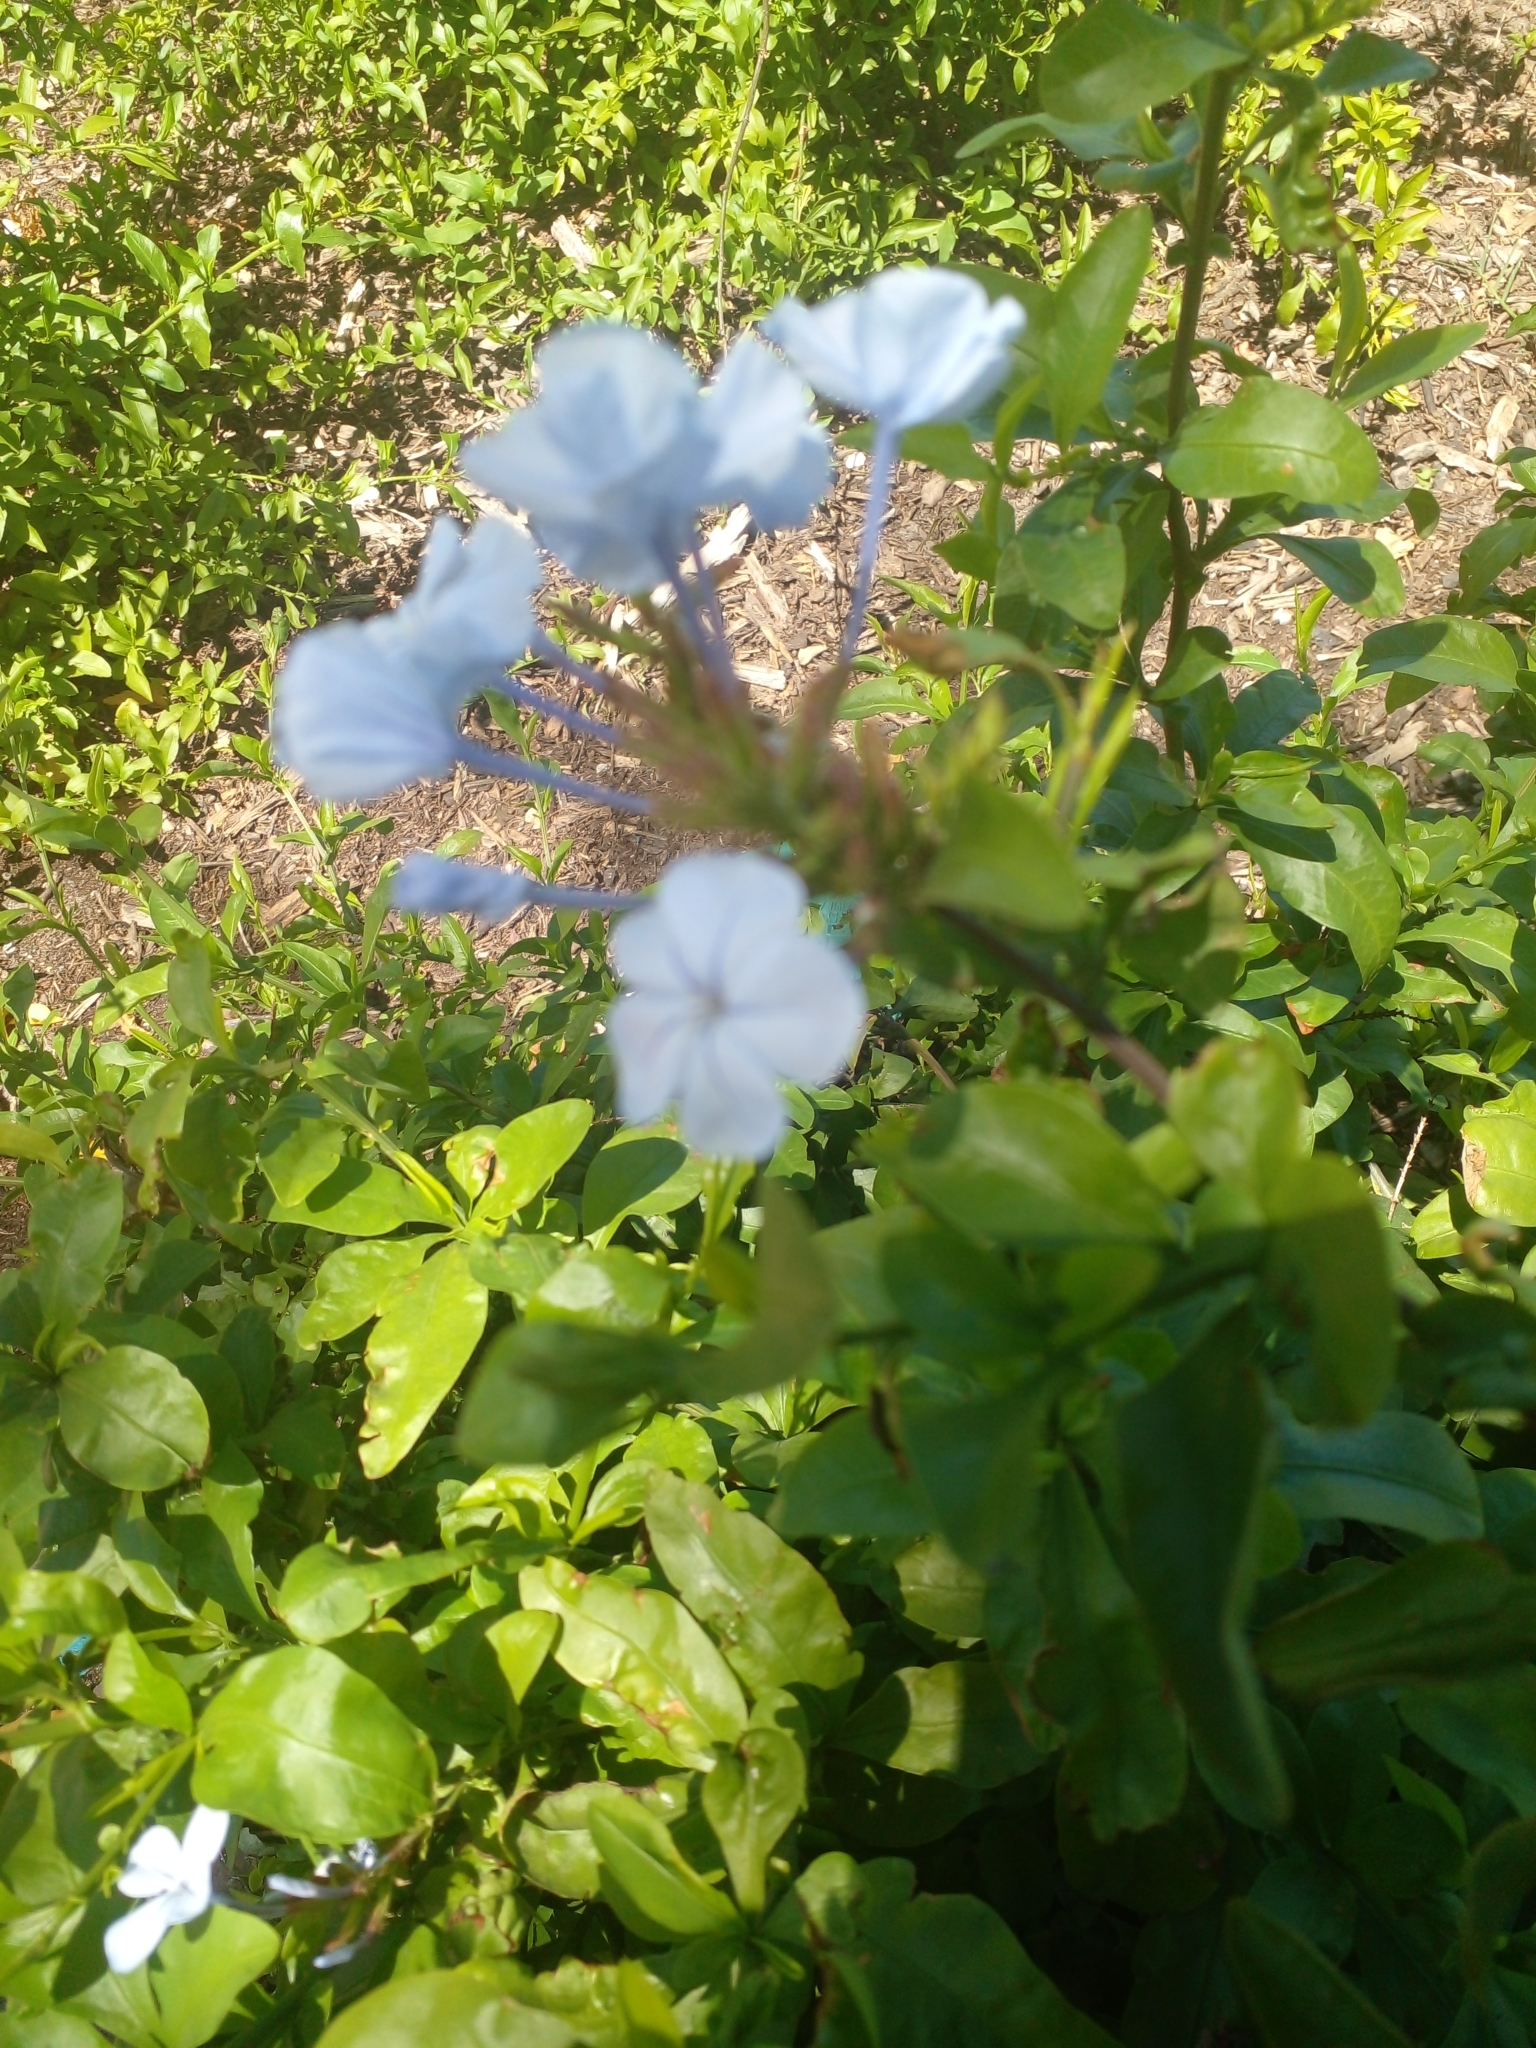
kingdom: Plantae
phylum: Tracheophyta
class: Magnoliopsida
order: Caryophyllales
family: Plumbaginaceae
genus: Plumbago
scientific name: Plumbago auriculata
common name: Cape leadwort
